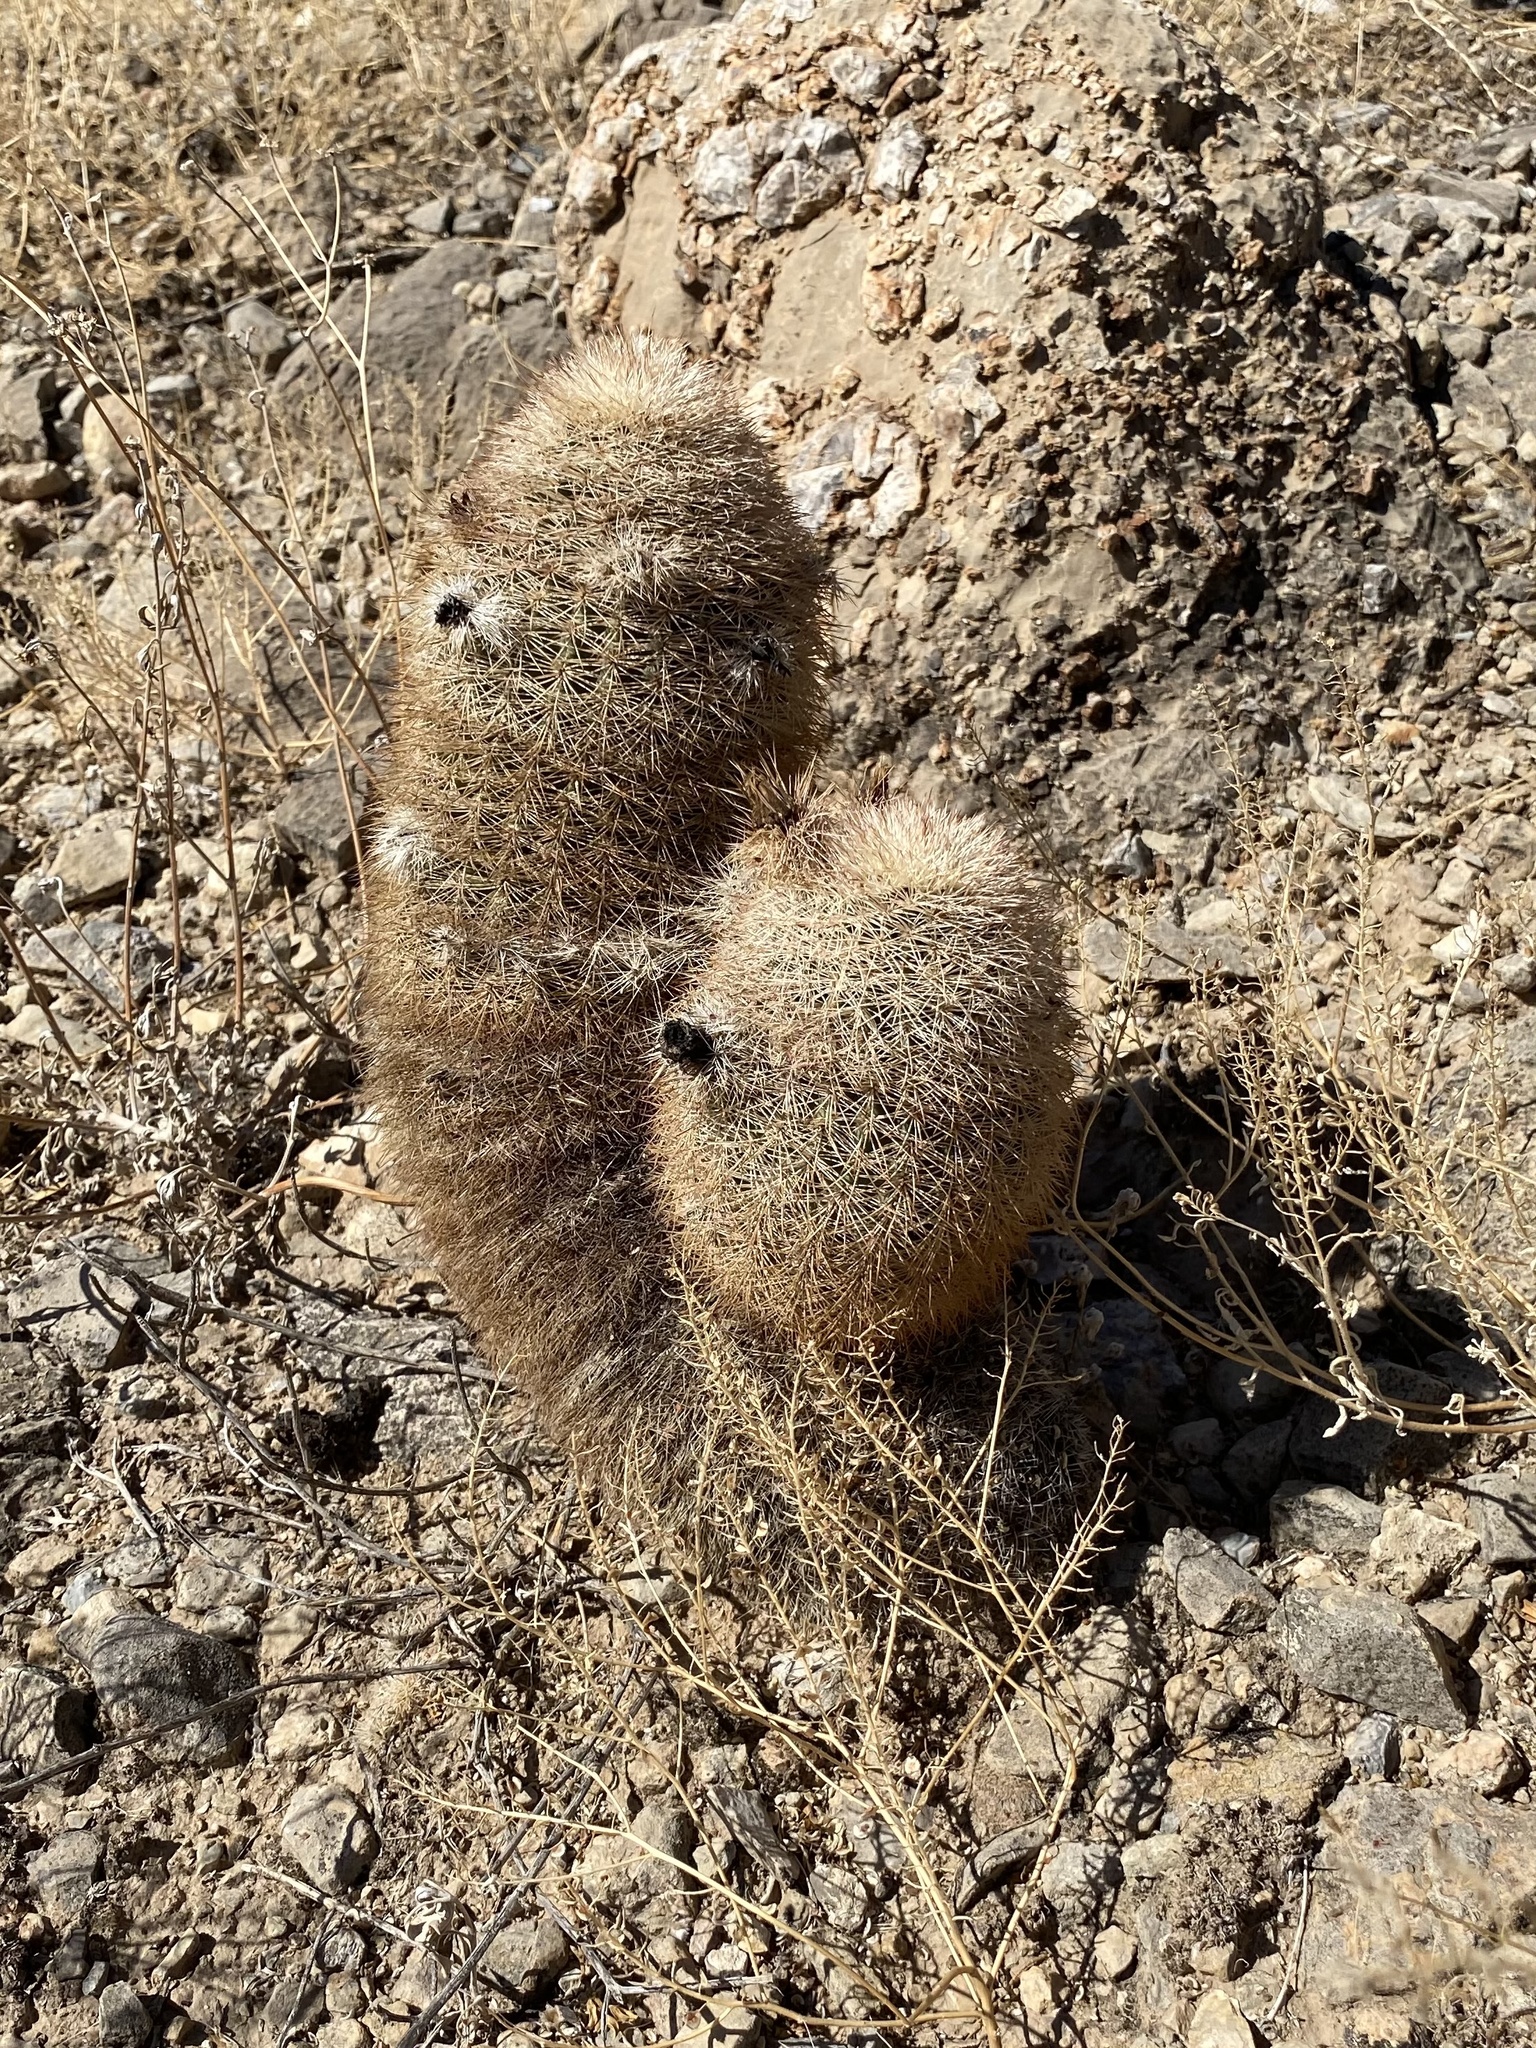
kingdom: Plantae
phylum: Tracheophyta
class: Magnoliopsida
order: Caryophyllales
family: Cactaceae
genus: Echinocereus
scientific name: Echinocereus dasyacanthus
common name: Spiny hedgehog cactus
